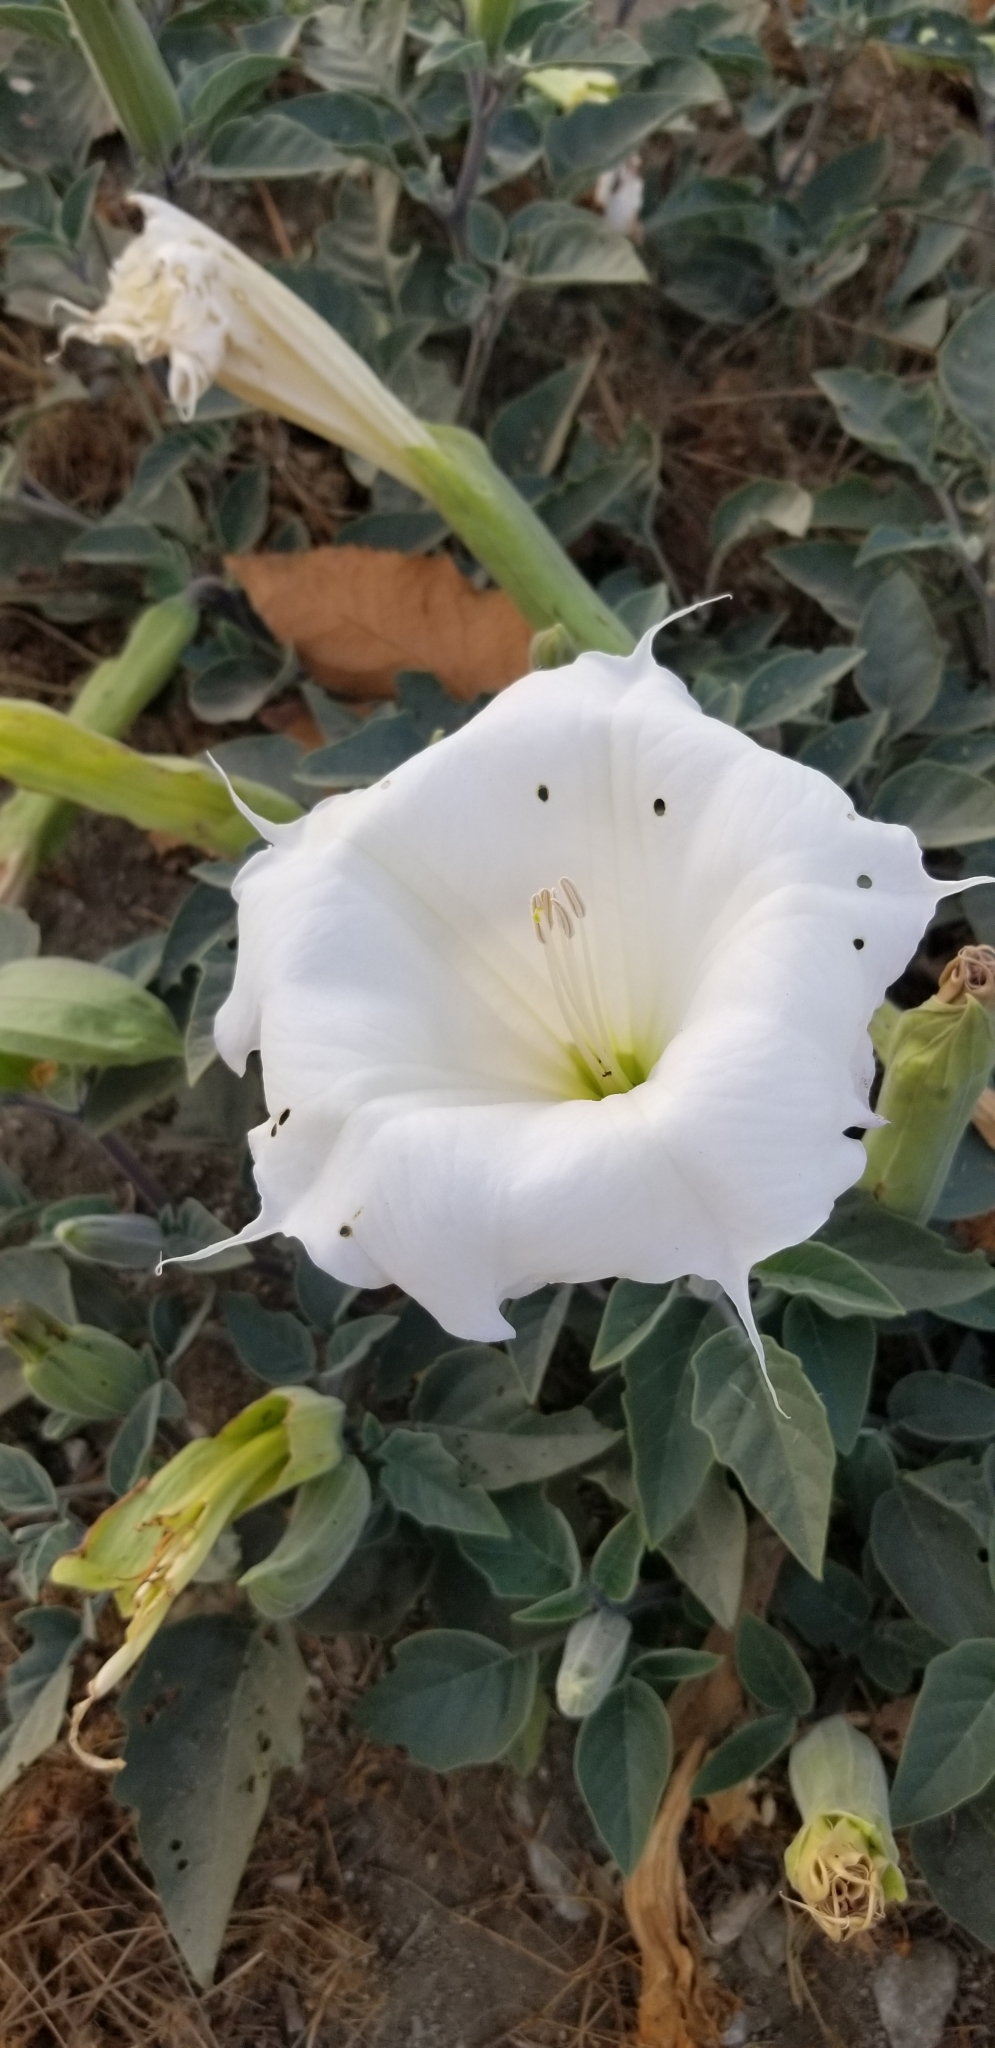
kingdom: Plantae
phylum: Tracheophyta
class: Magnoliopsida
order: Solanales
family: Solanaceae
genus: Datura
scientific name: Datura wrightii
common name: Sacred thorn-apple
